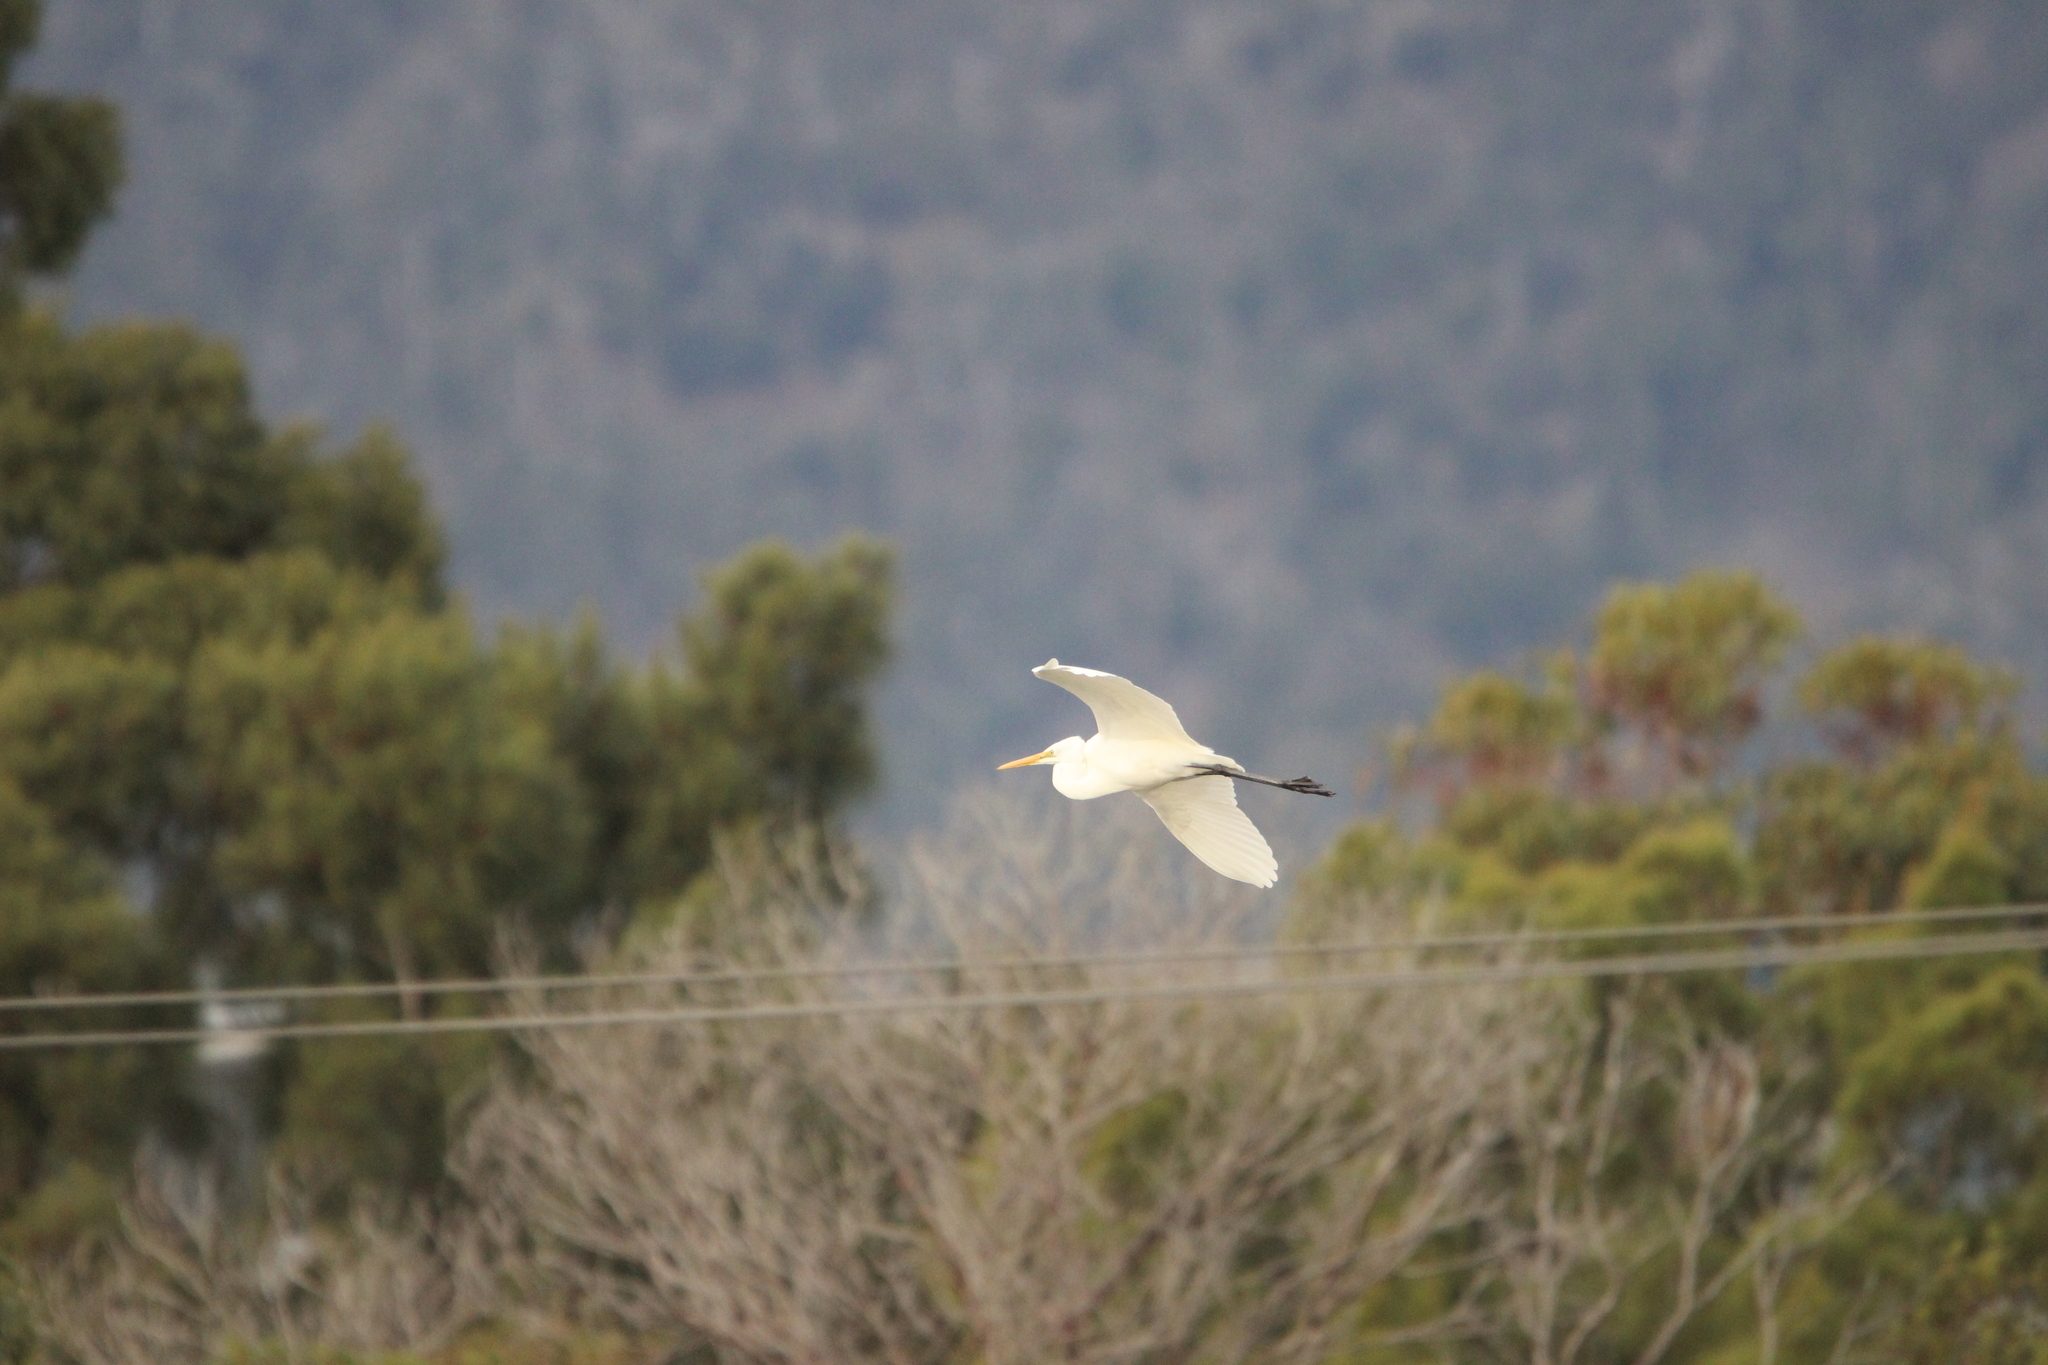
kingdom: Animalia
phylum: Chordata
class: Aves
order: Pelecaniformes
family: Ardeidae
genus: Ardea
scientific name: Ardea modesta
